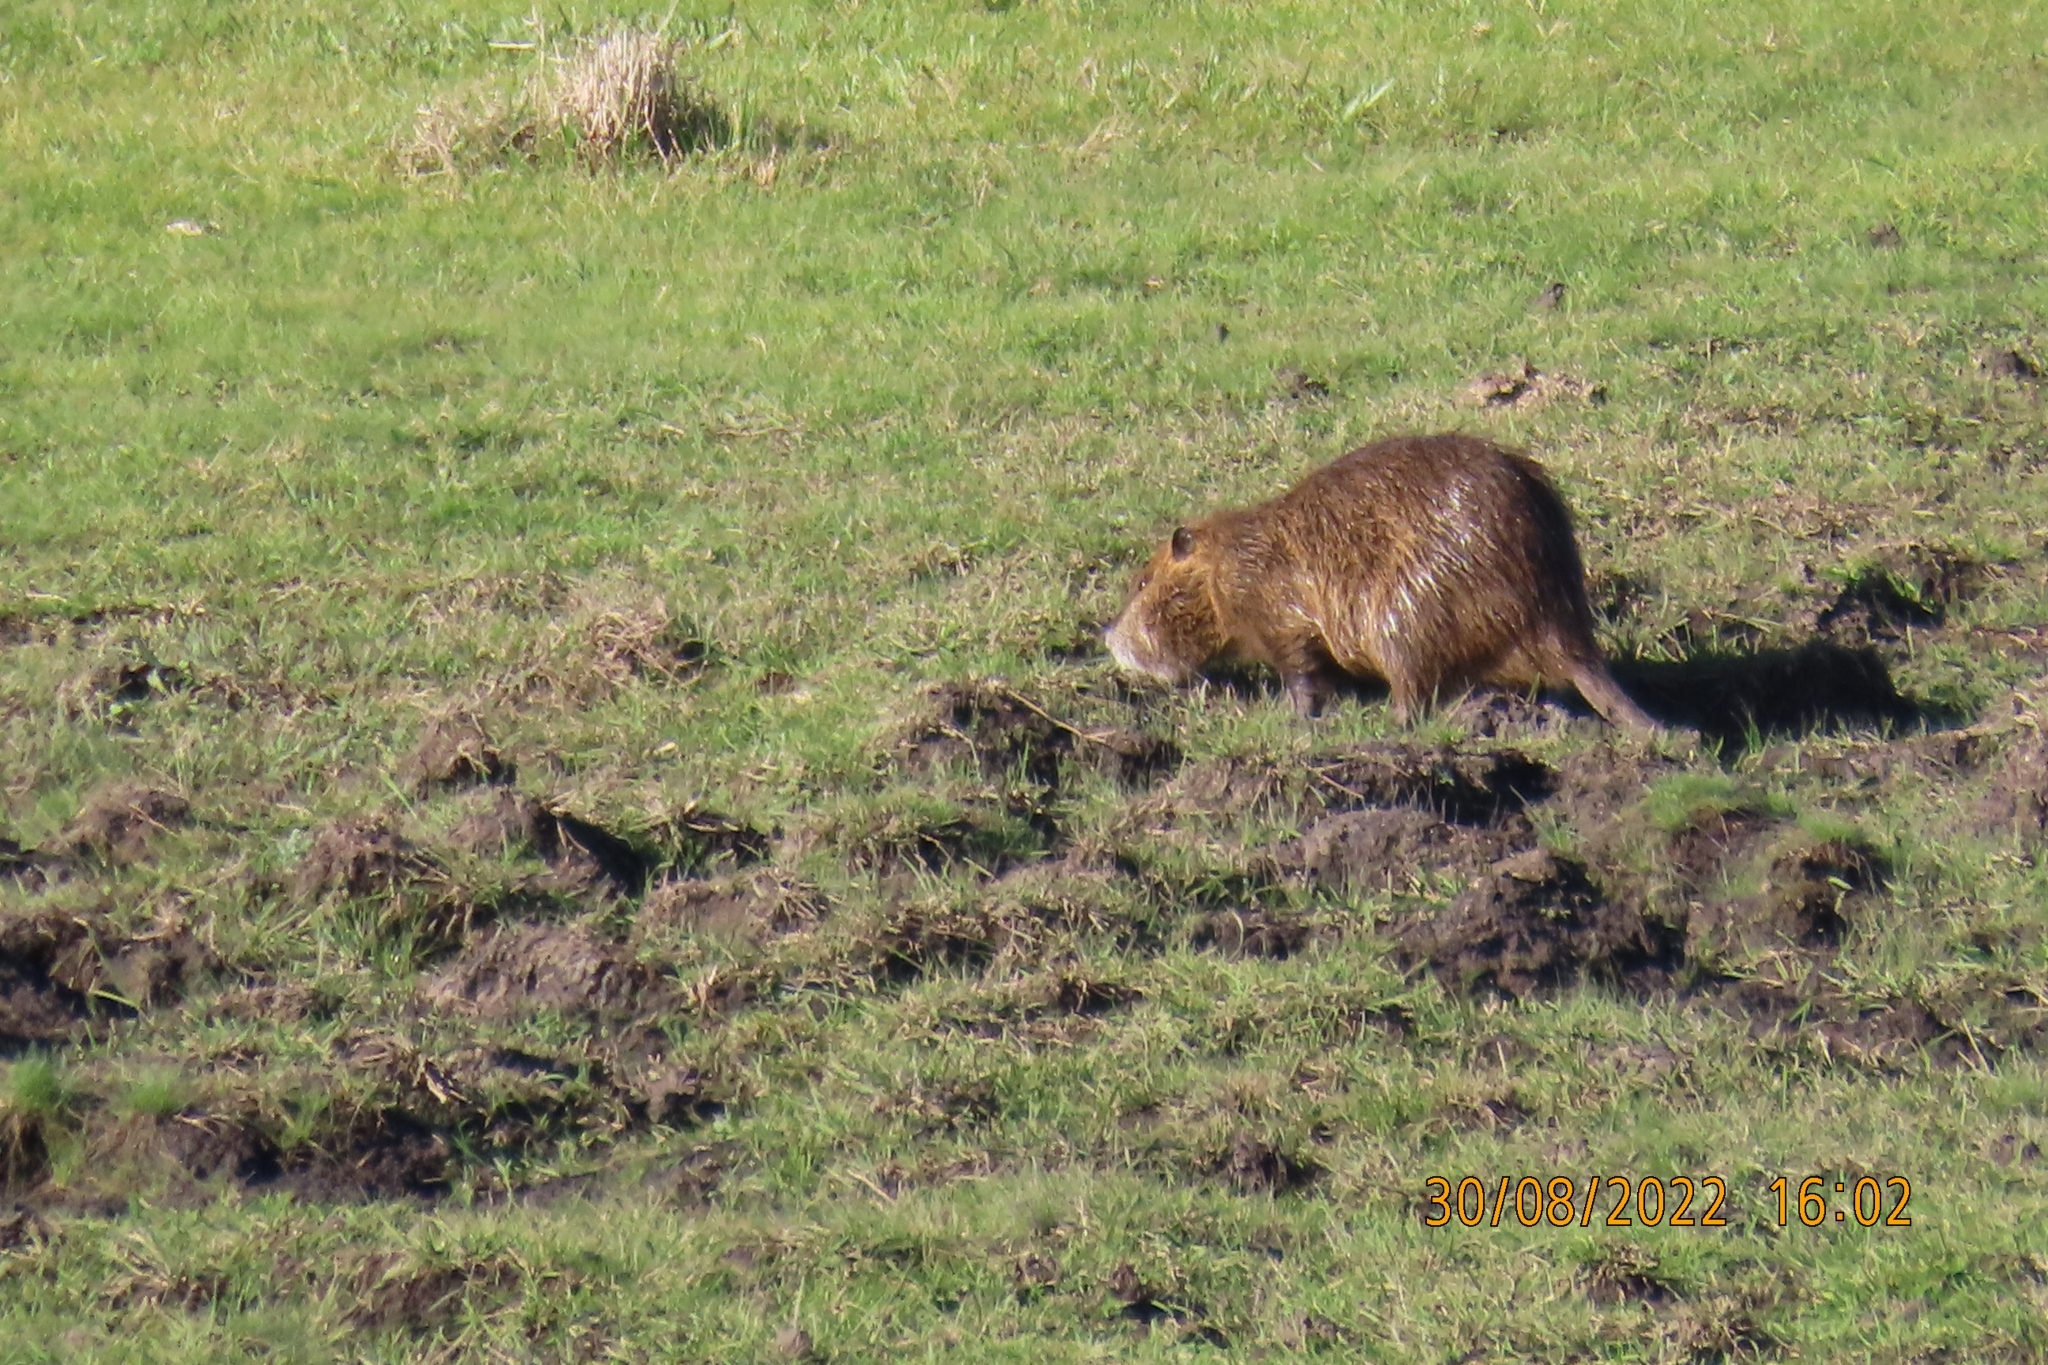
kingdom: Animalia
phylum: Chordata
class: Mammalia
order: Rodentia
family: Myocastoridae
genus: Myocastor
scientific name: Myocastor coypus
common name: Coypu
